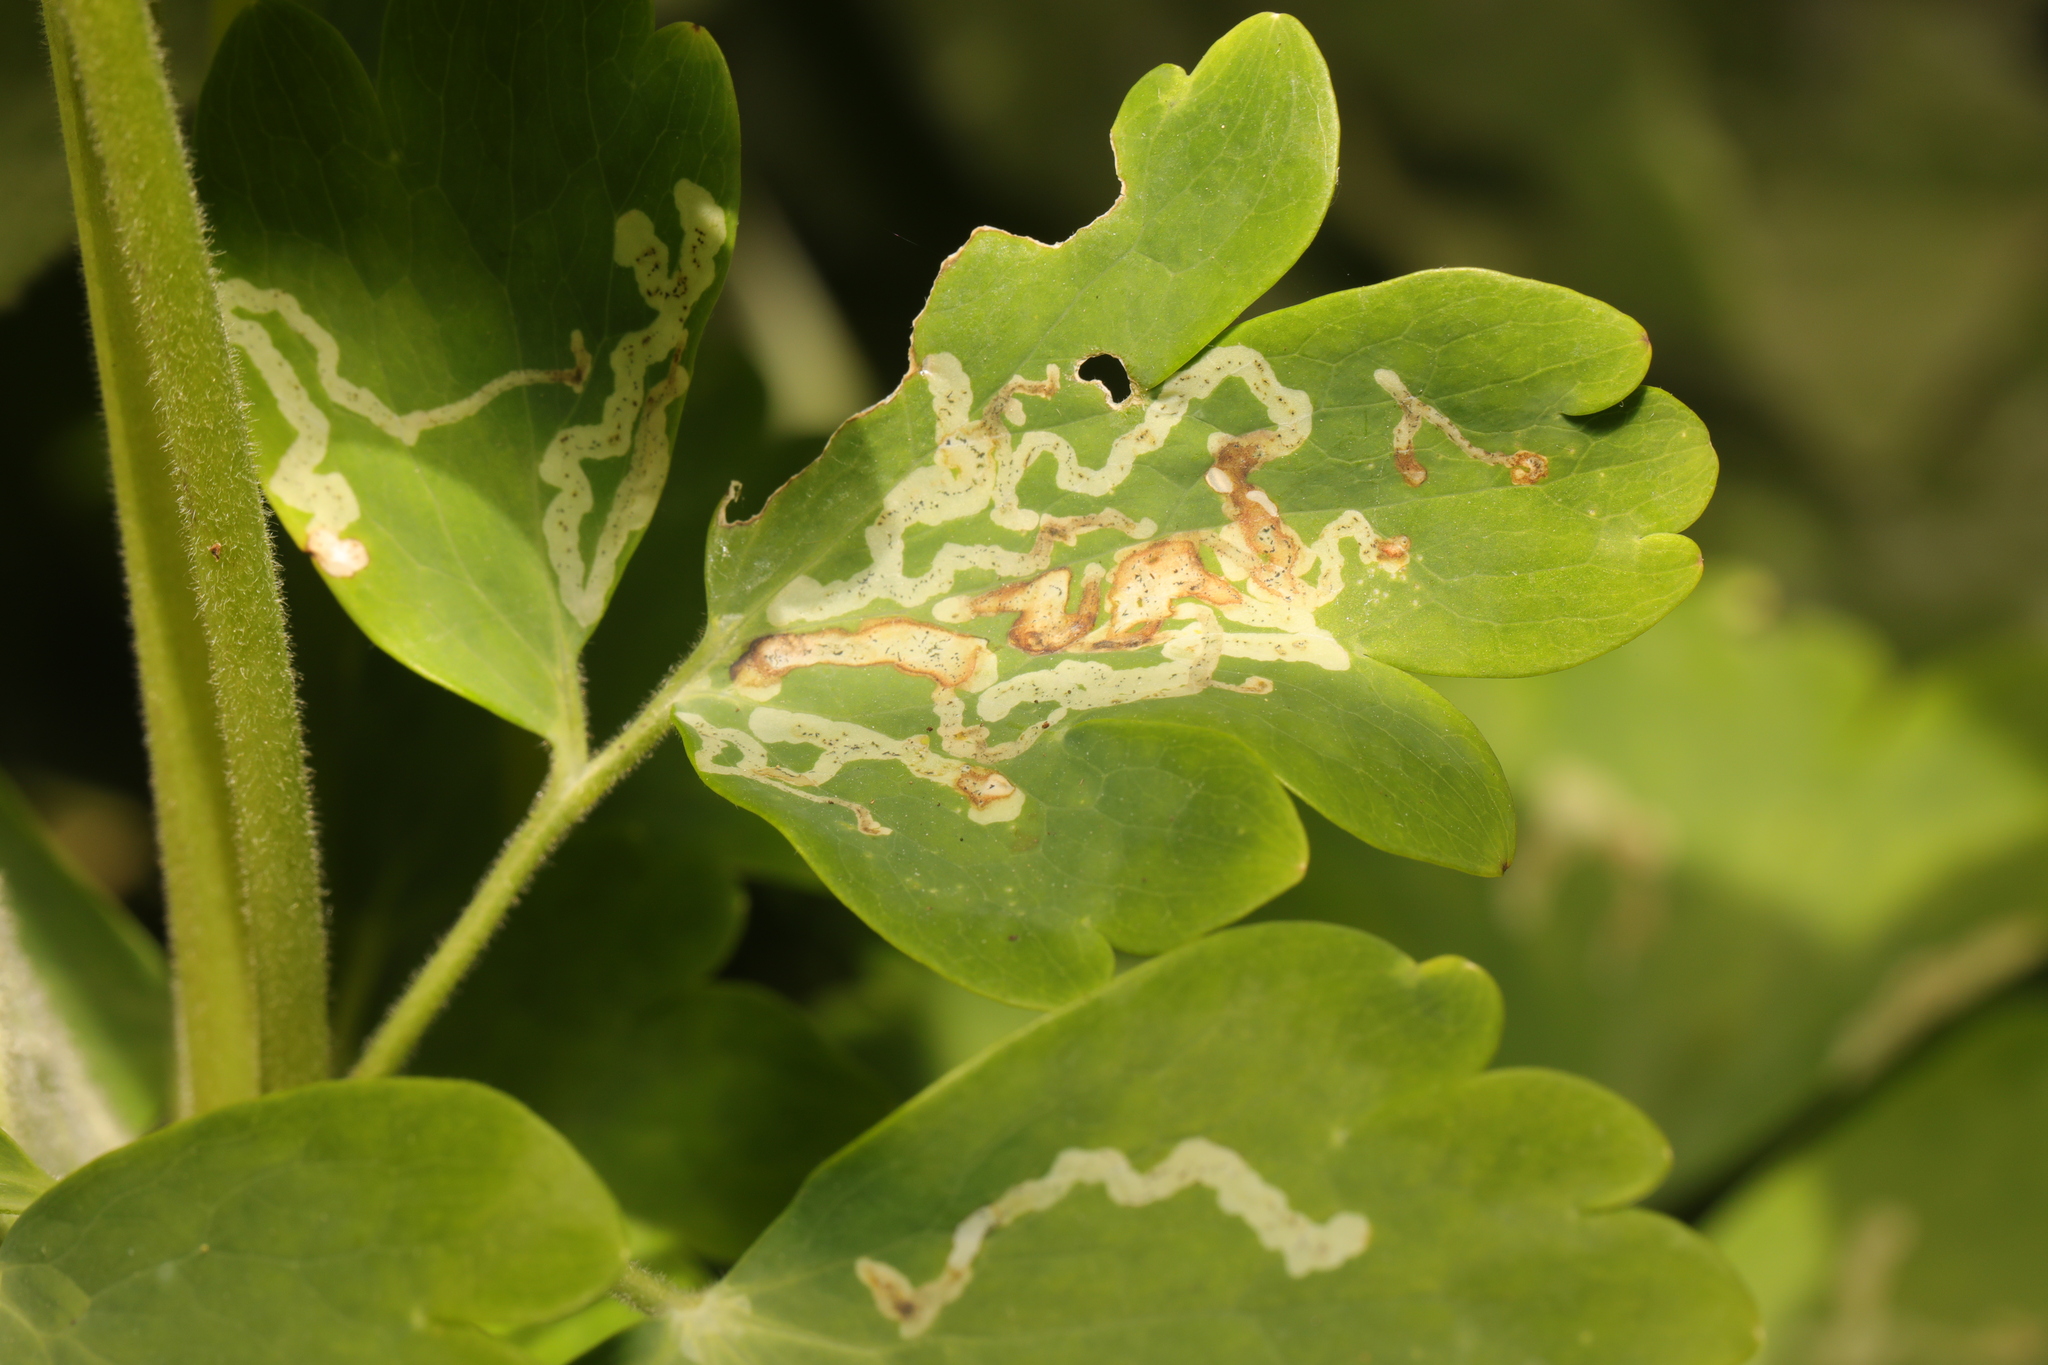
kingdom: Animalia
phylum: Arthropoda
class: Insecta
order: Diptera
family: Agromyzidae
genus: Phytomyza
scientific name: Phytomyza ancholiae
